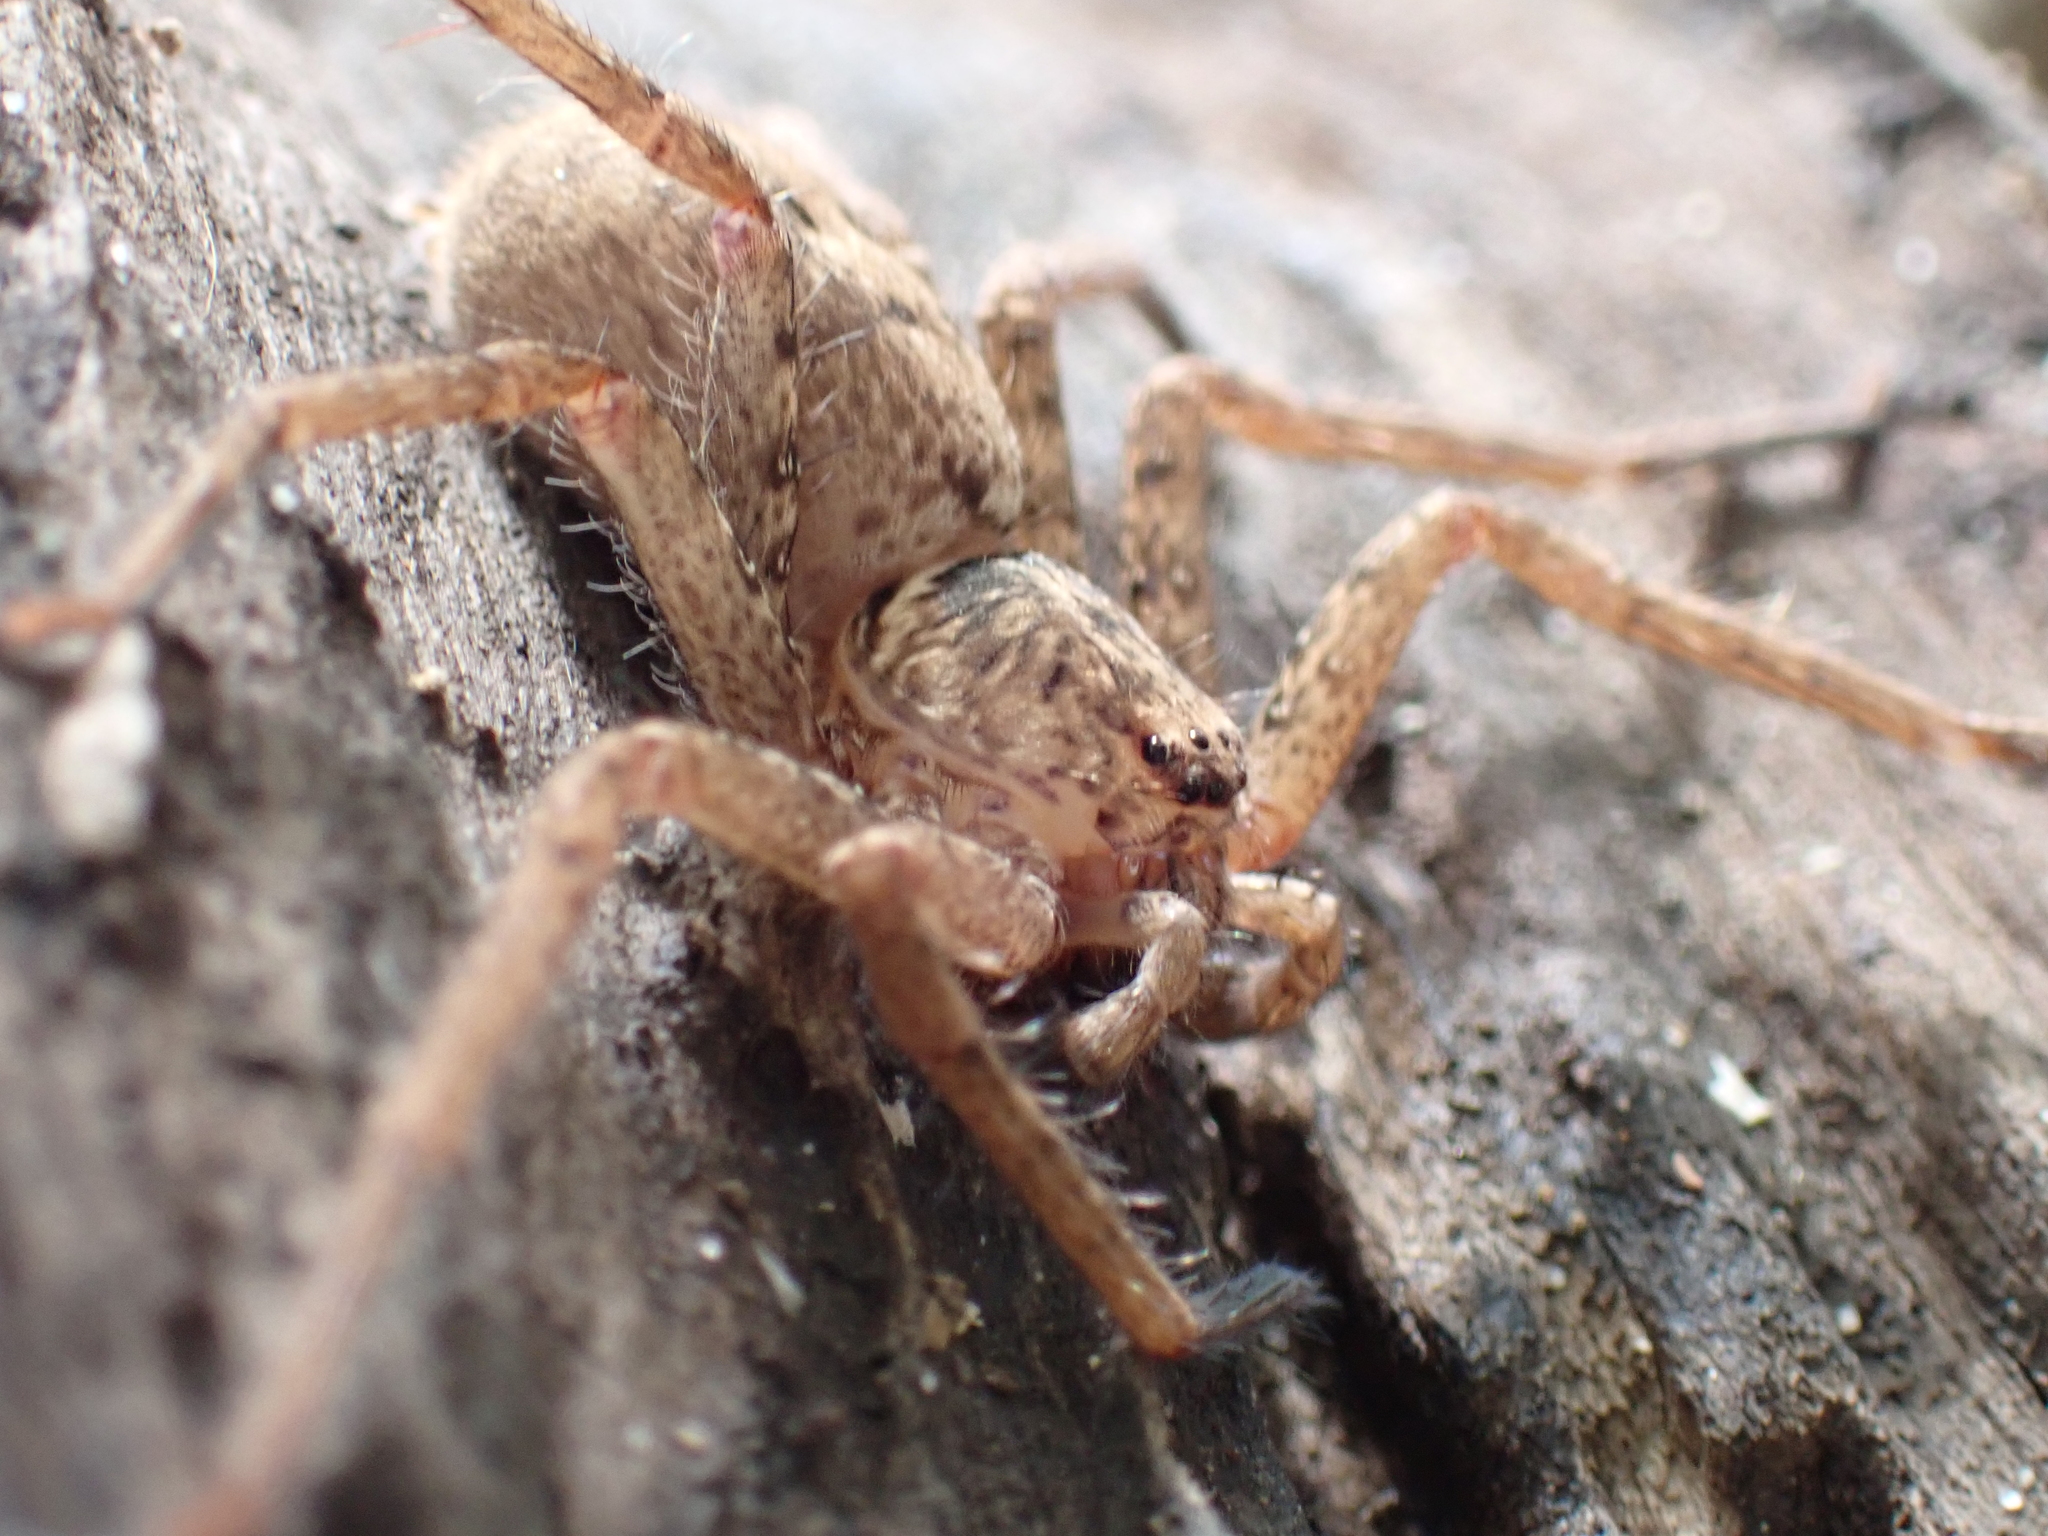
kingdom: Animalia
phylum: Arthropoda
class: Arachnida
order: Araneae
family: Sparassidae
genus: Heteropoda
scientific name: Heteropoda jugulans
